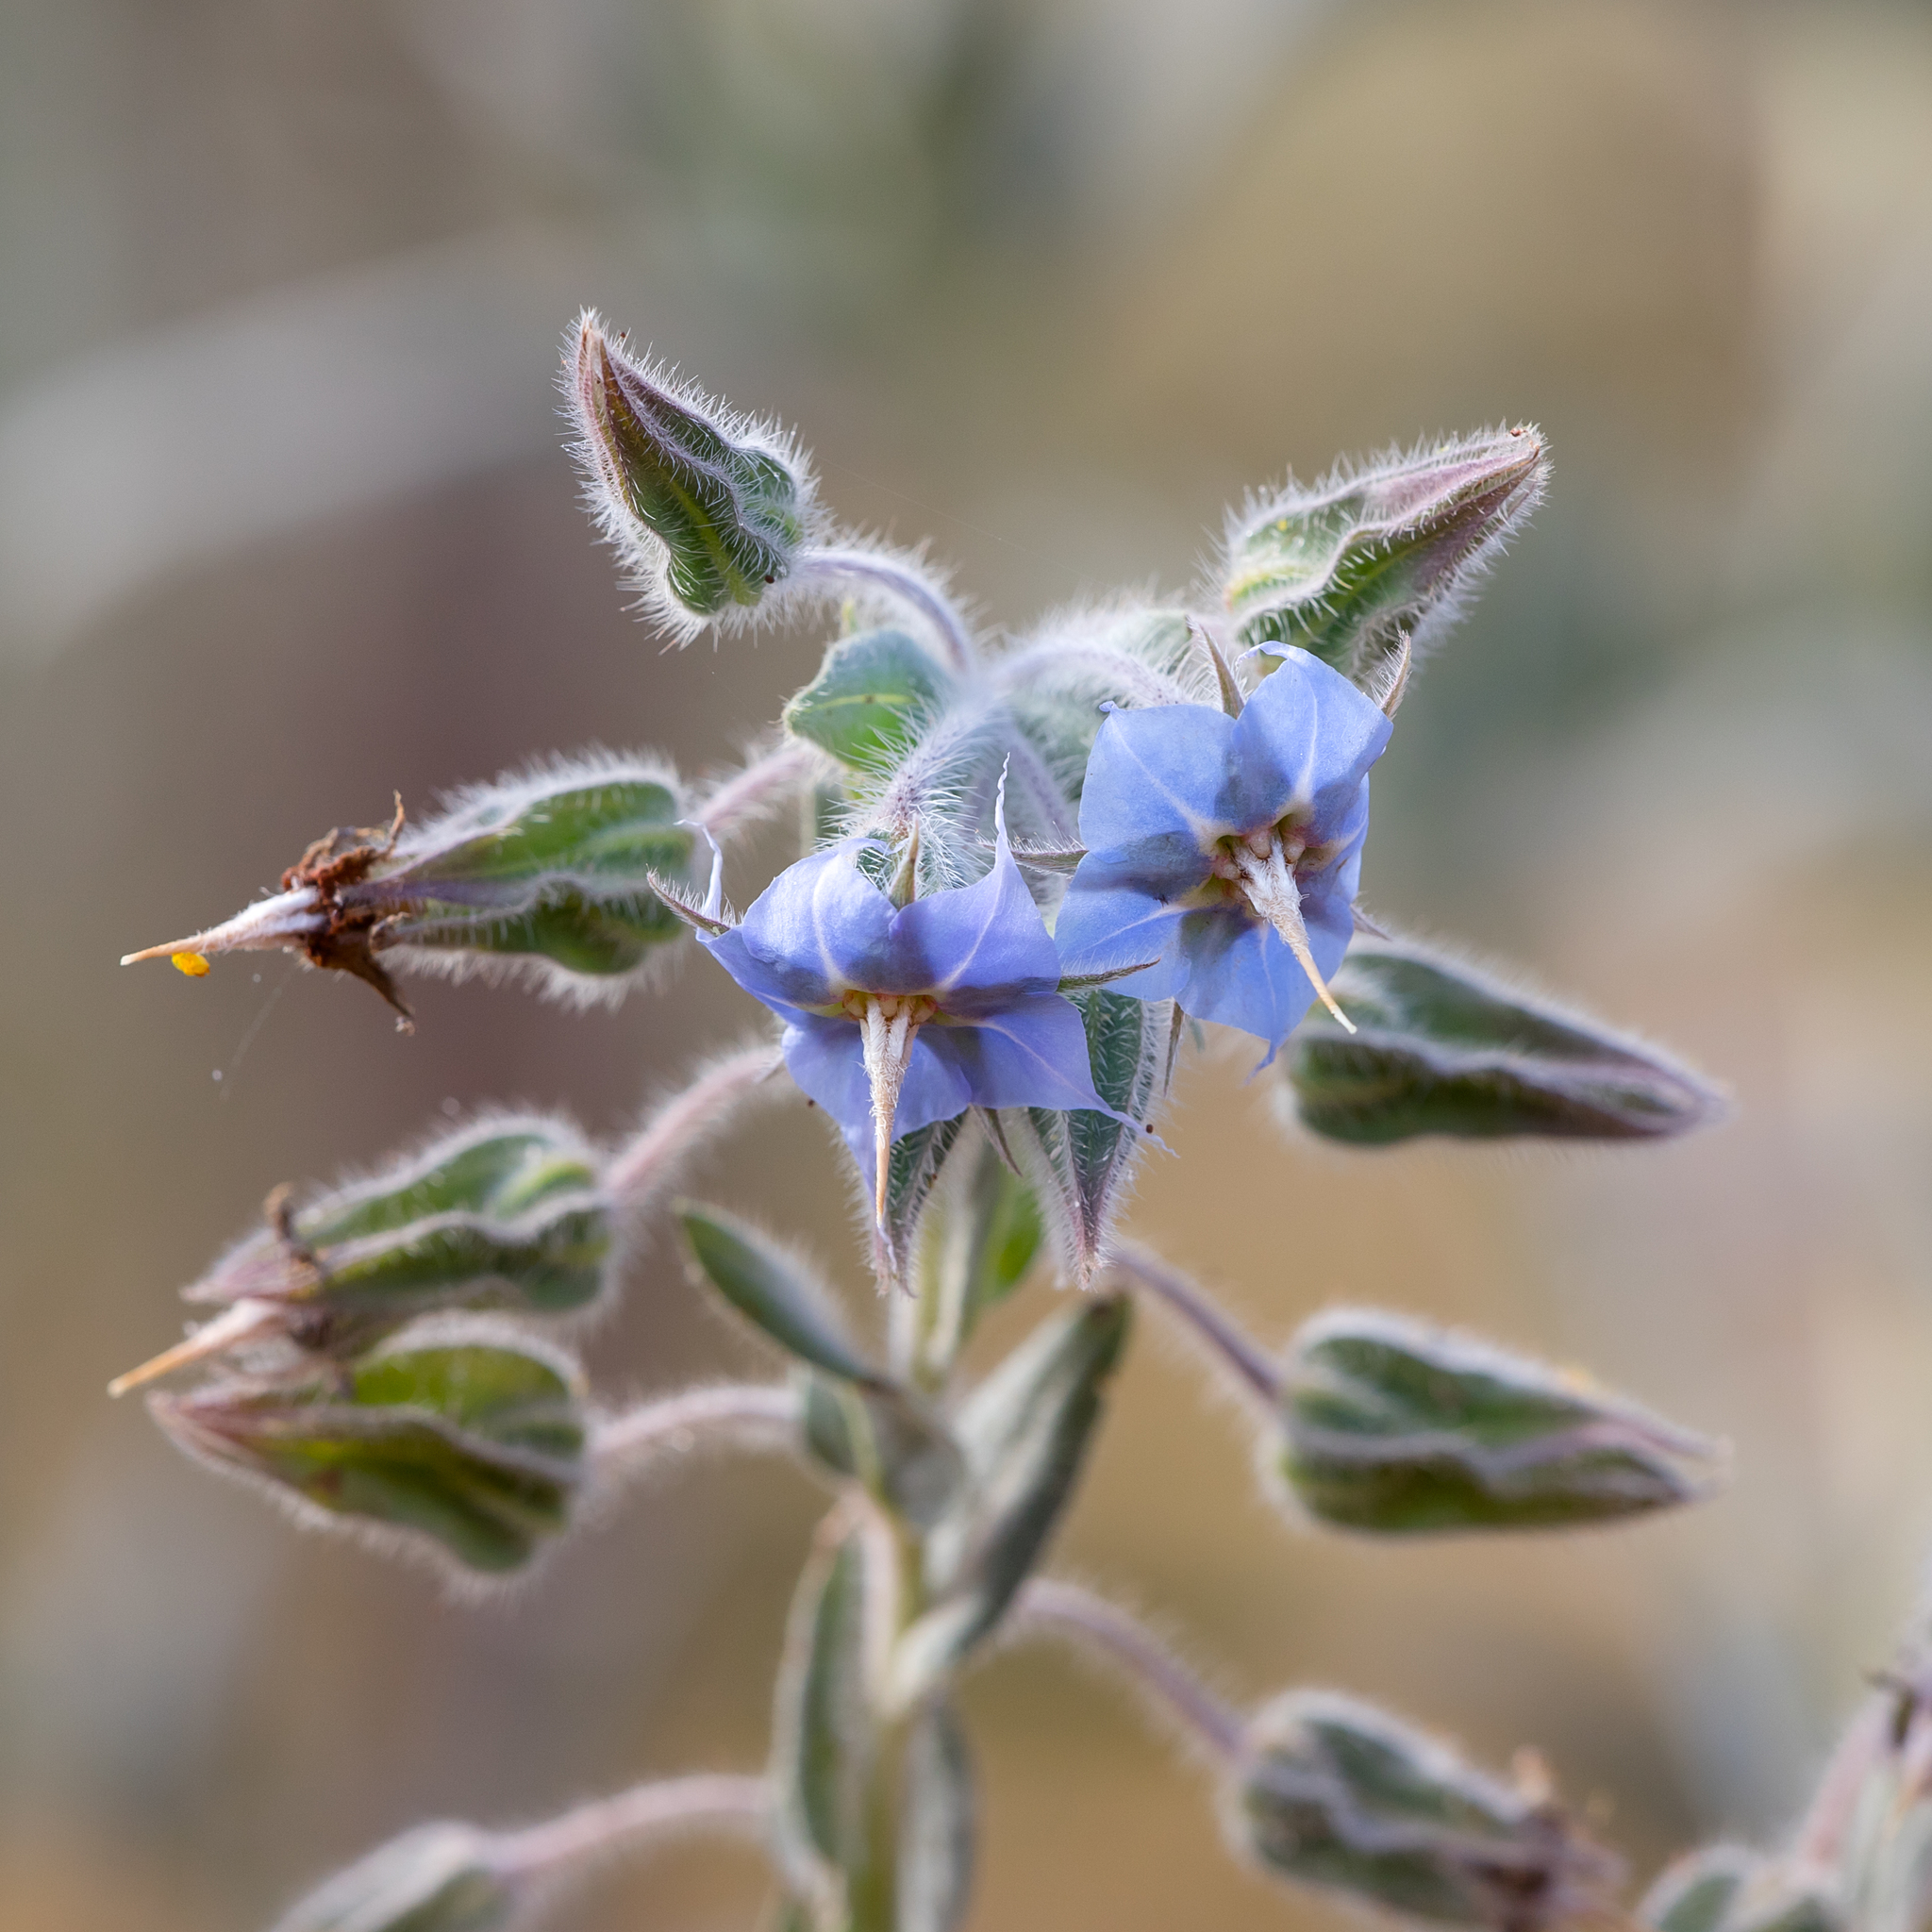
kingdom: Plantae
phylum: Tracheophyta
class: Magnoliopsida
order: Boraginales
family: Boraginaceae
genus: Trichodesma
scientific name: Trichodesma zeylanicum
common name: Camelbush
